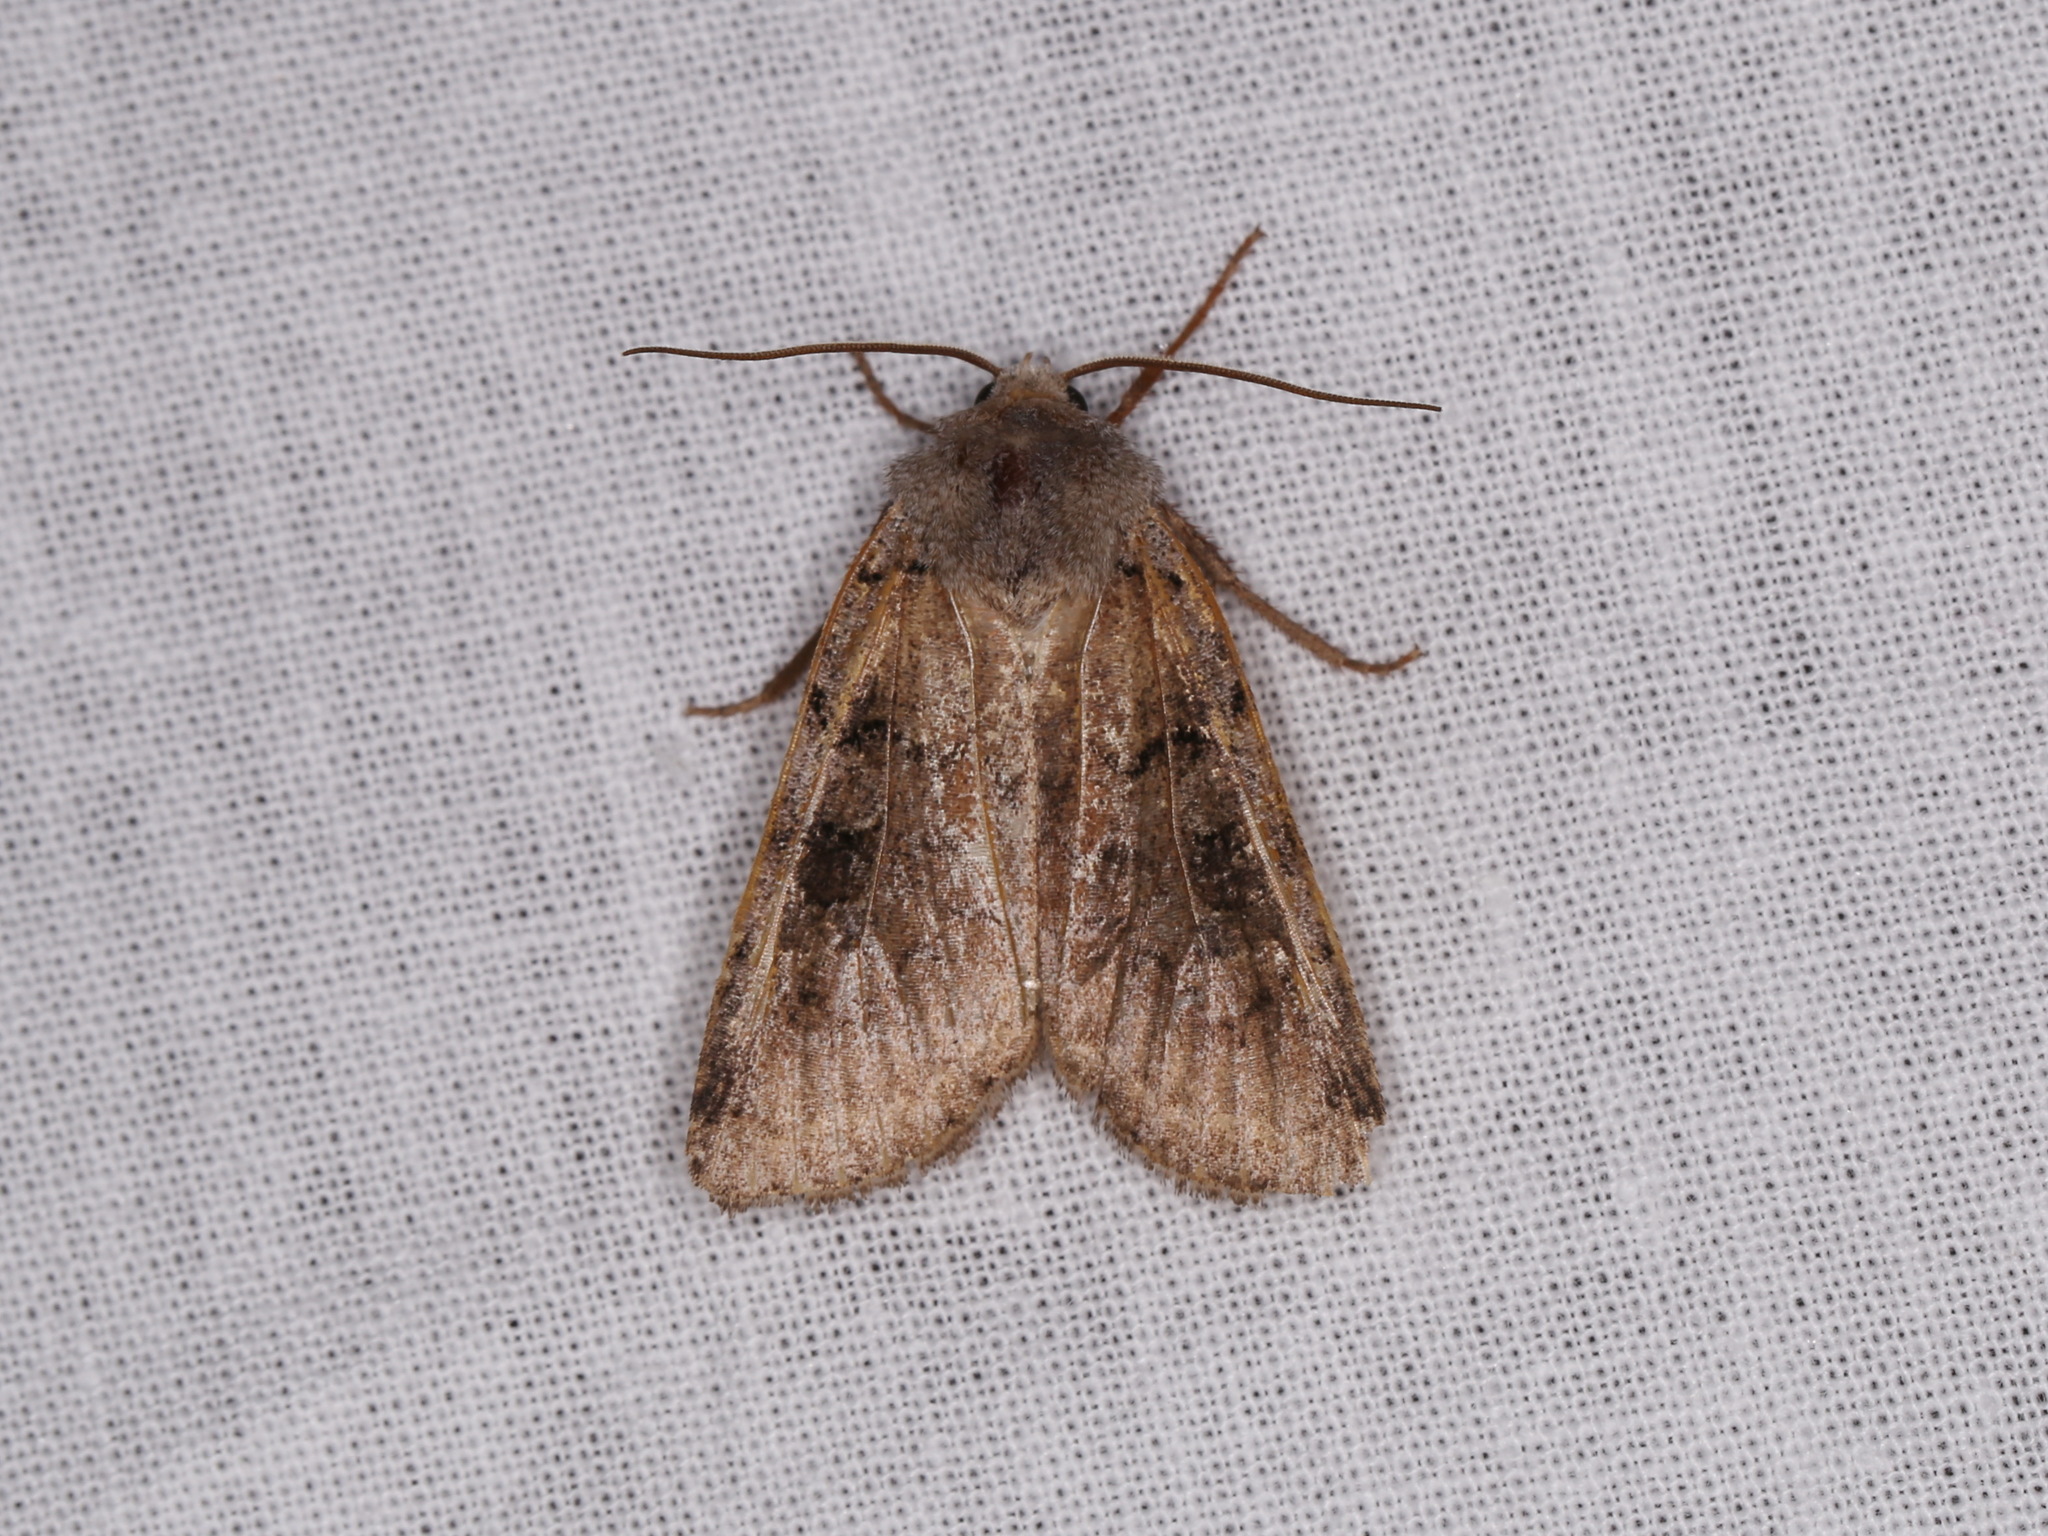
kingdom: Animalia
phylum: Arthropoda
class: Insecta
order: Lepidoptera
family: Noctuidae
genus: Richia
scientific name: Richia parentalis
